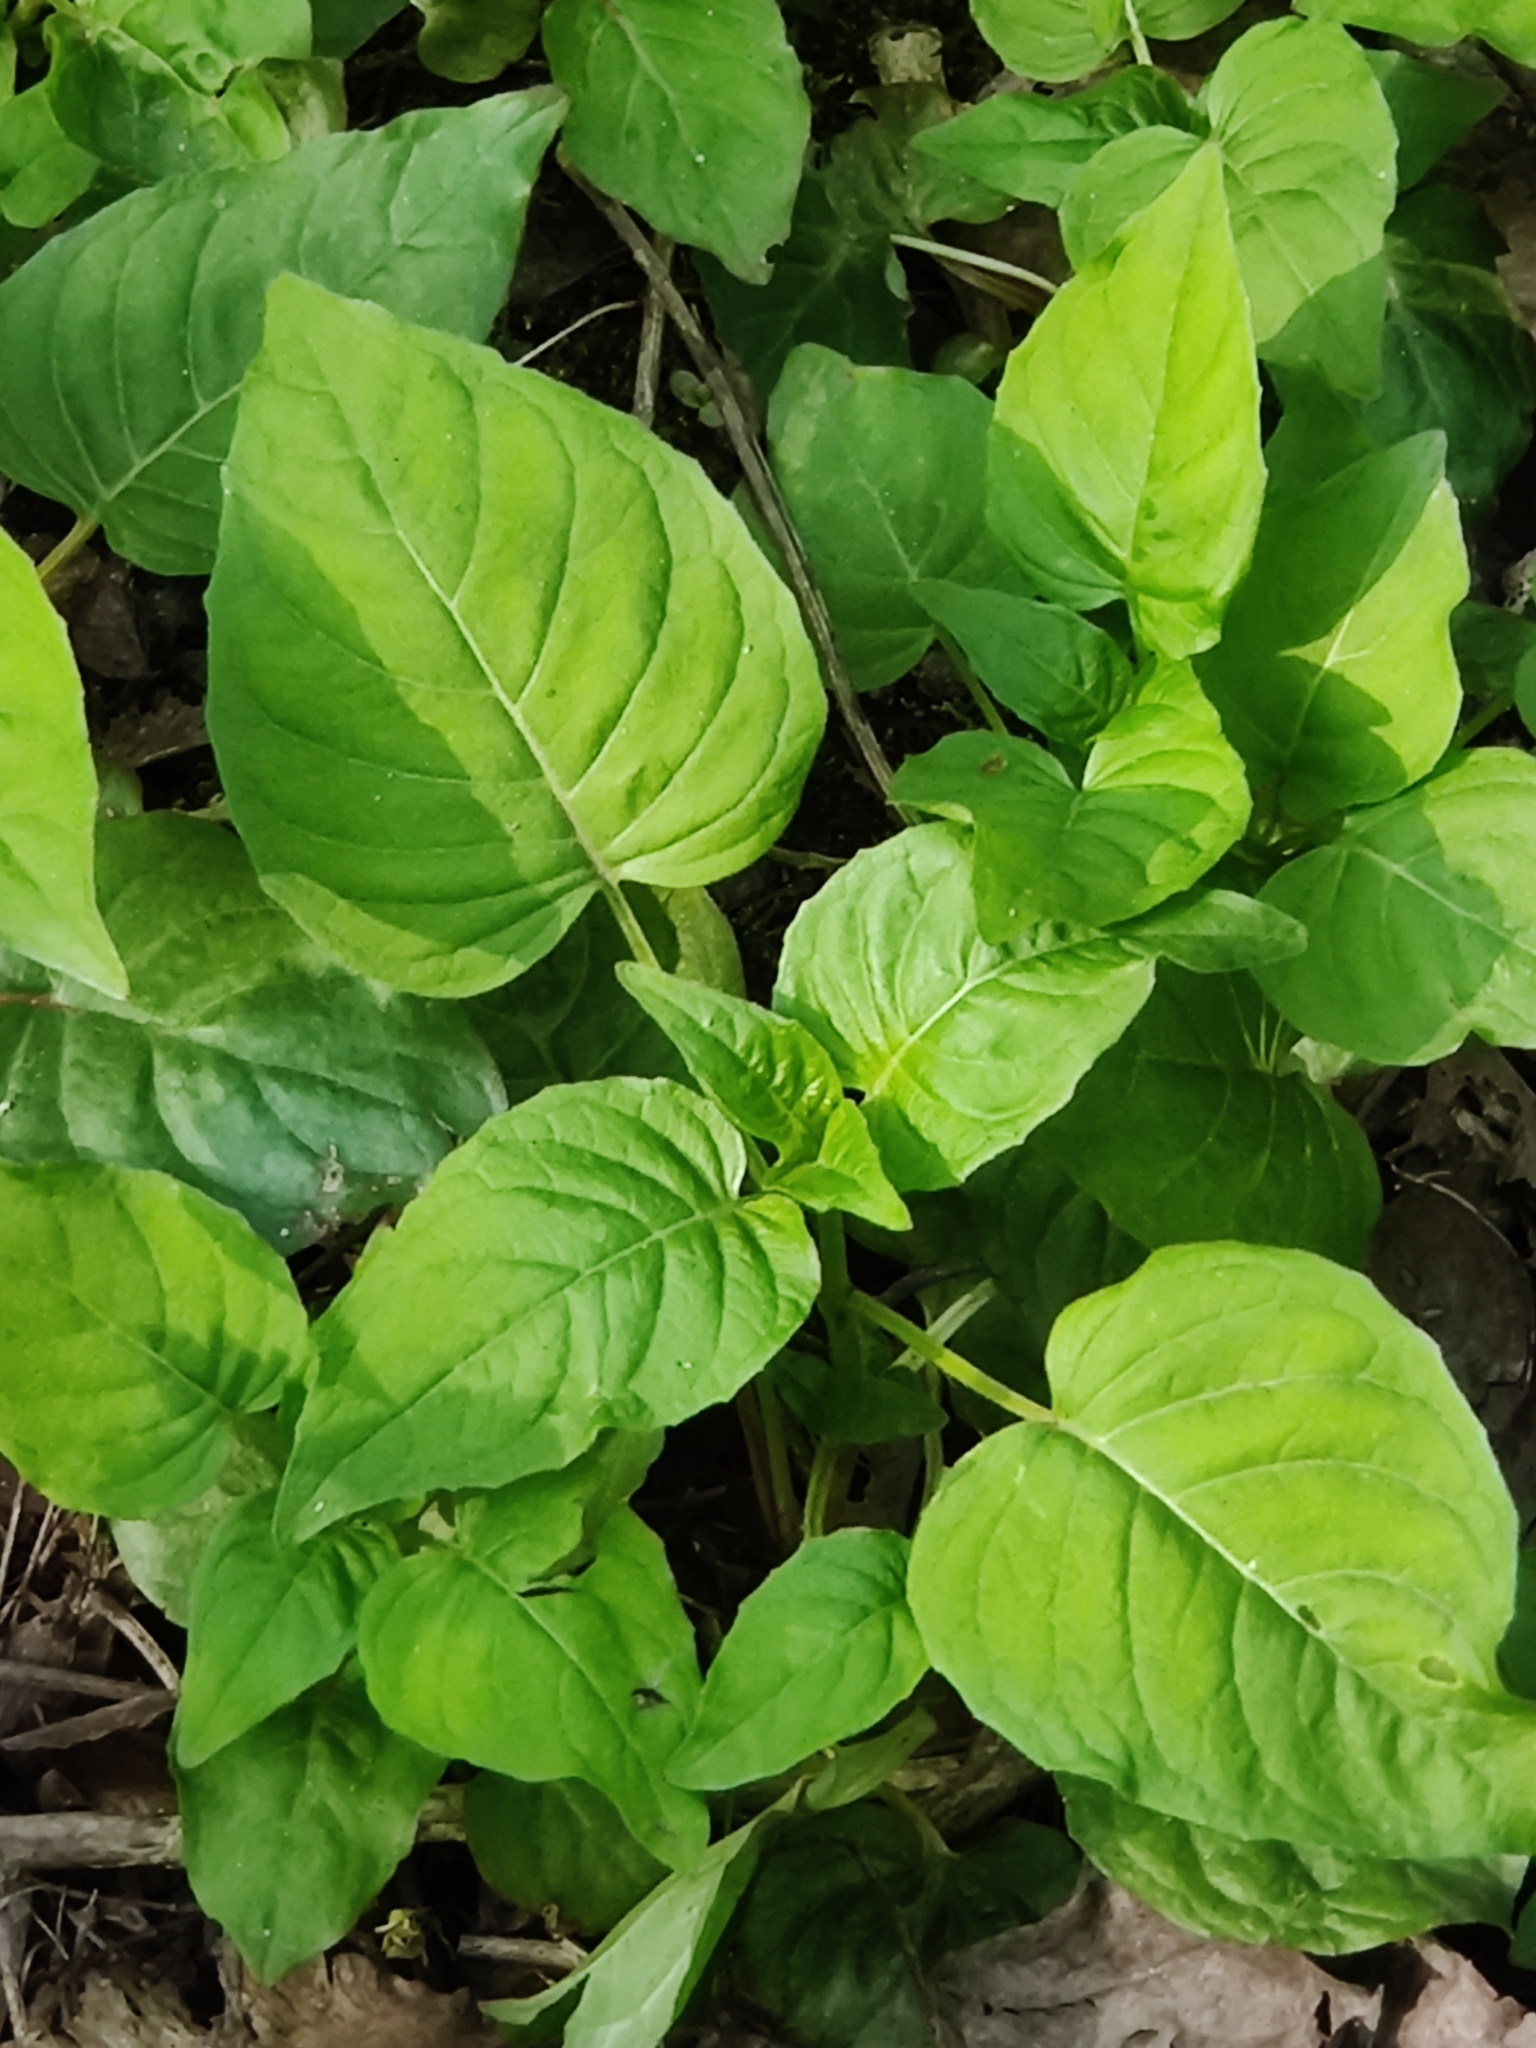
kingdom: Plantae
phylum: Tracheophyta
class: Magnoliopsida
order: Myrtales
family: Onagraceae
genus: Circaea
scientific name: Circaea lutetiana
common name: Enchanter's-nightshade
